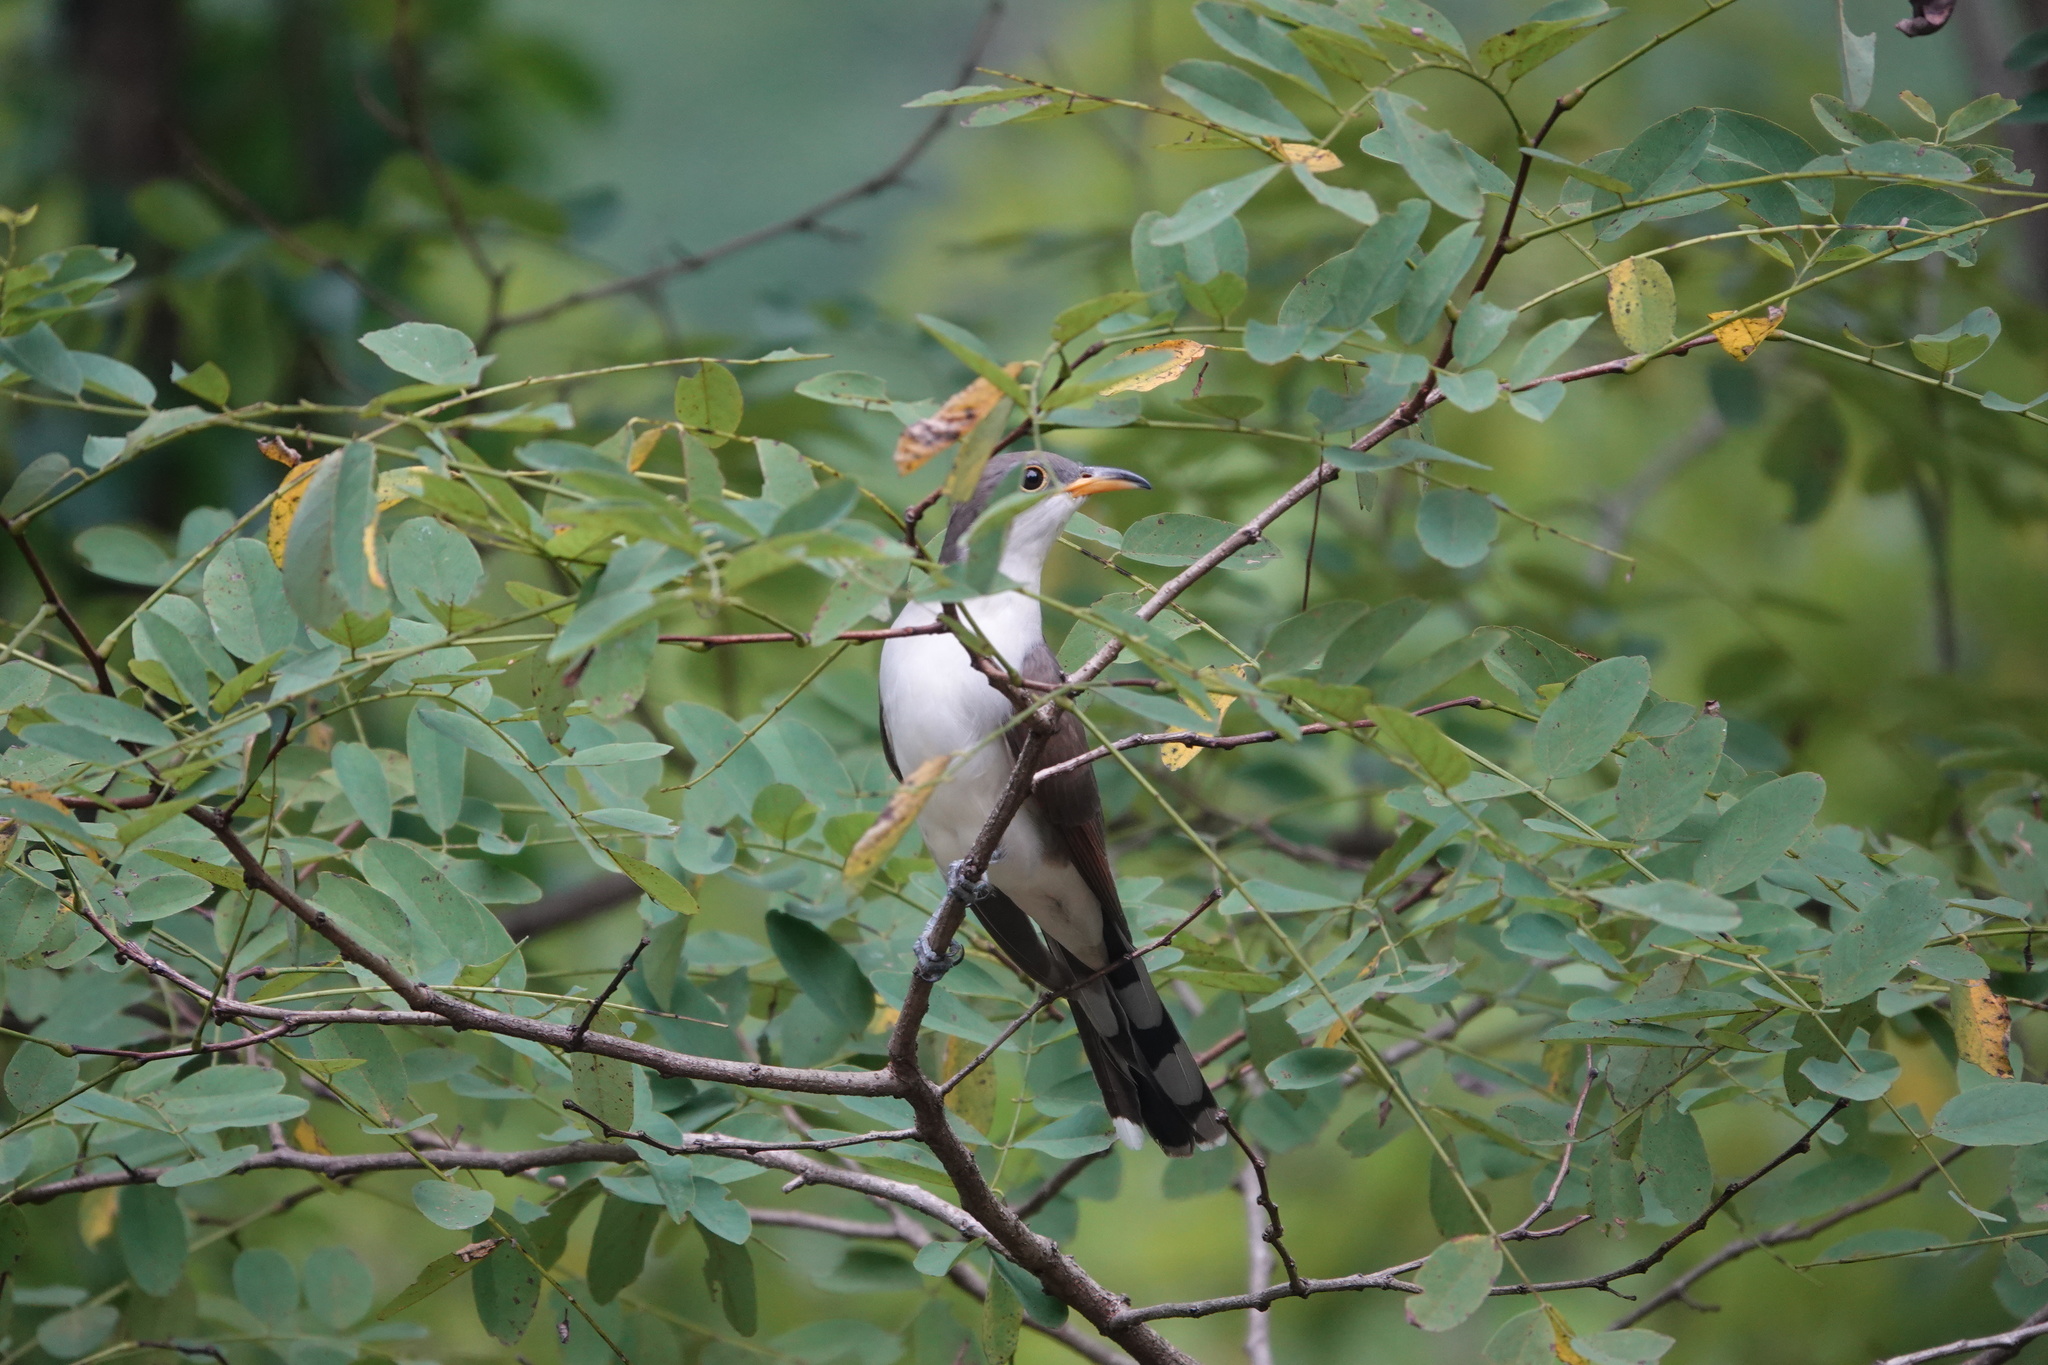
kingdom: Animalia
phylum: Chordata
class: Aves
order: Cuculiformes
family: Cuculidae
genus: Coccyzus
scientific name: Coccyzus americanus
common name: Yellow-billed cuckoo
